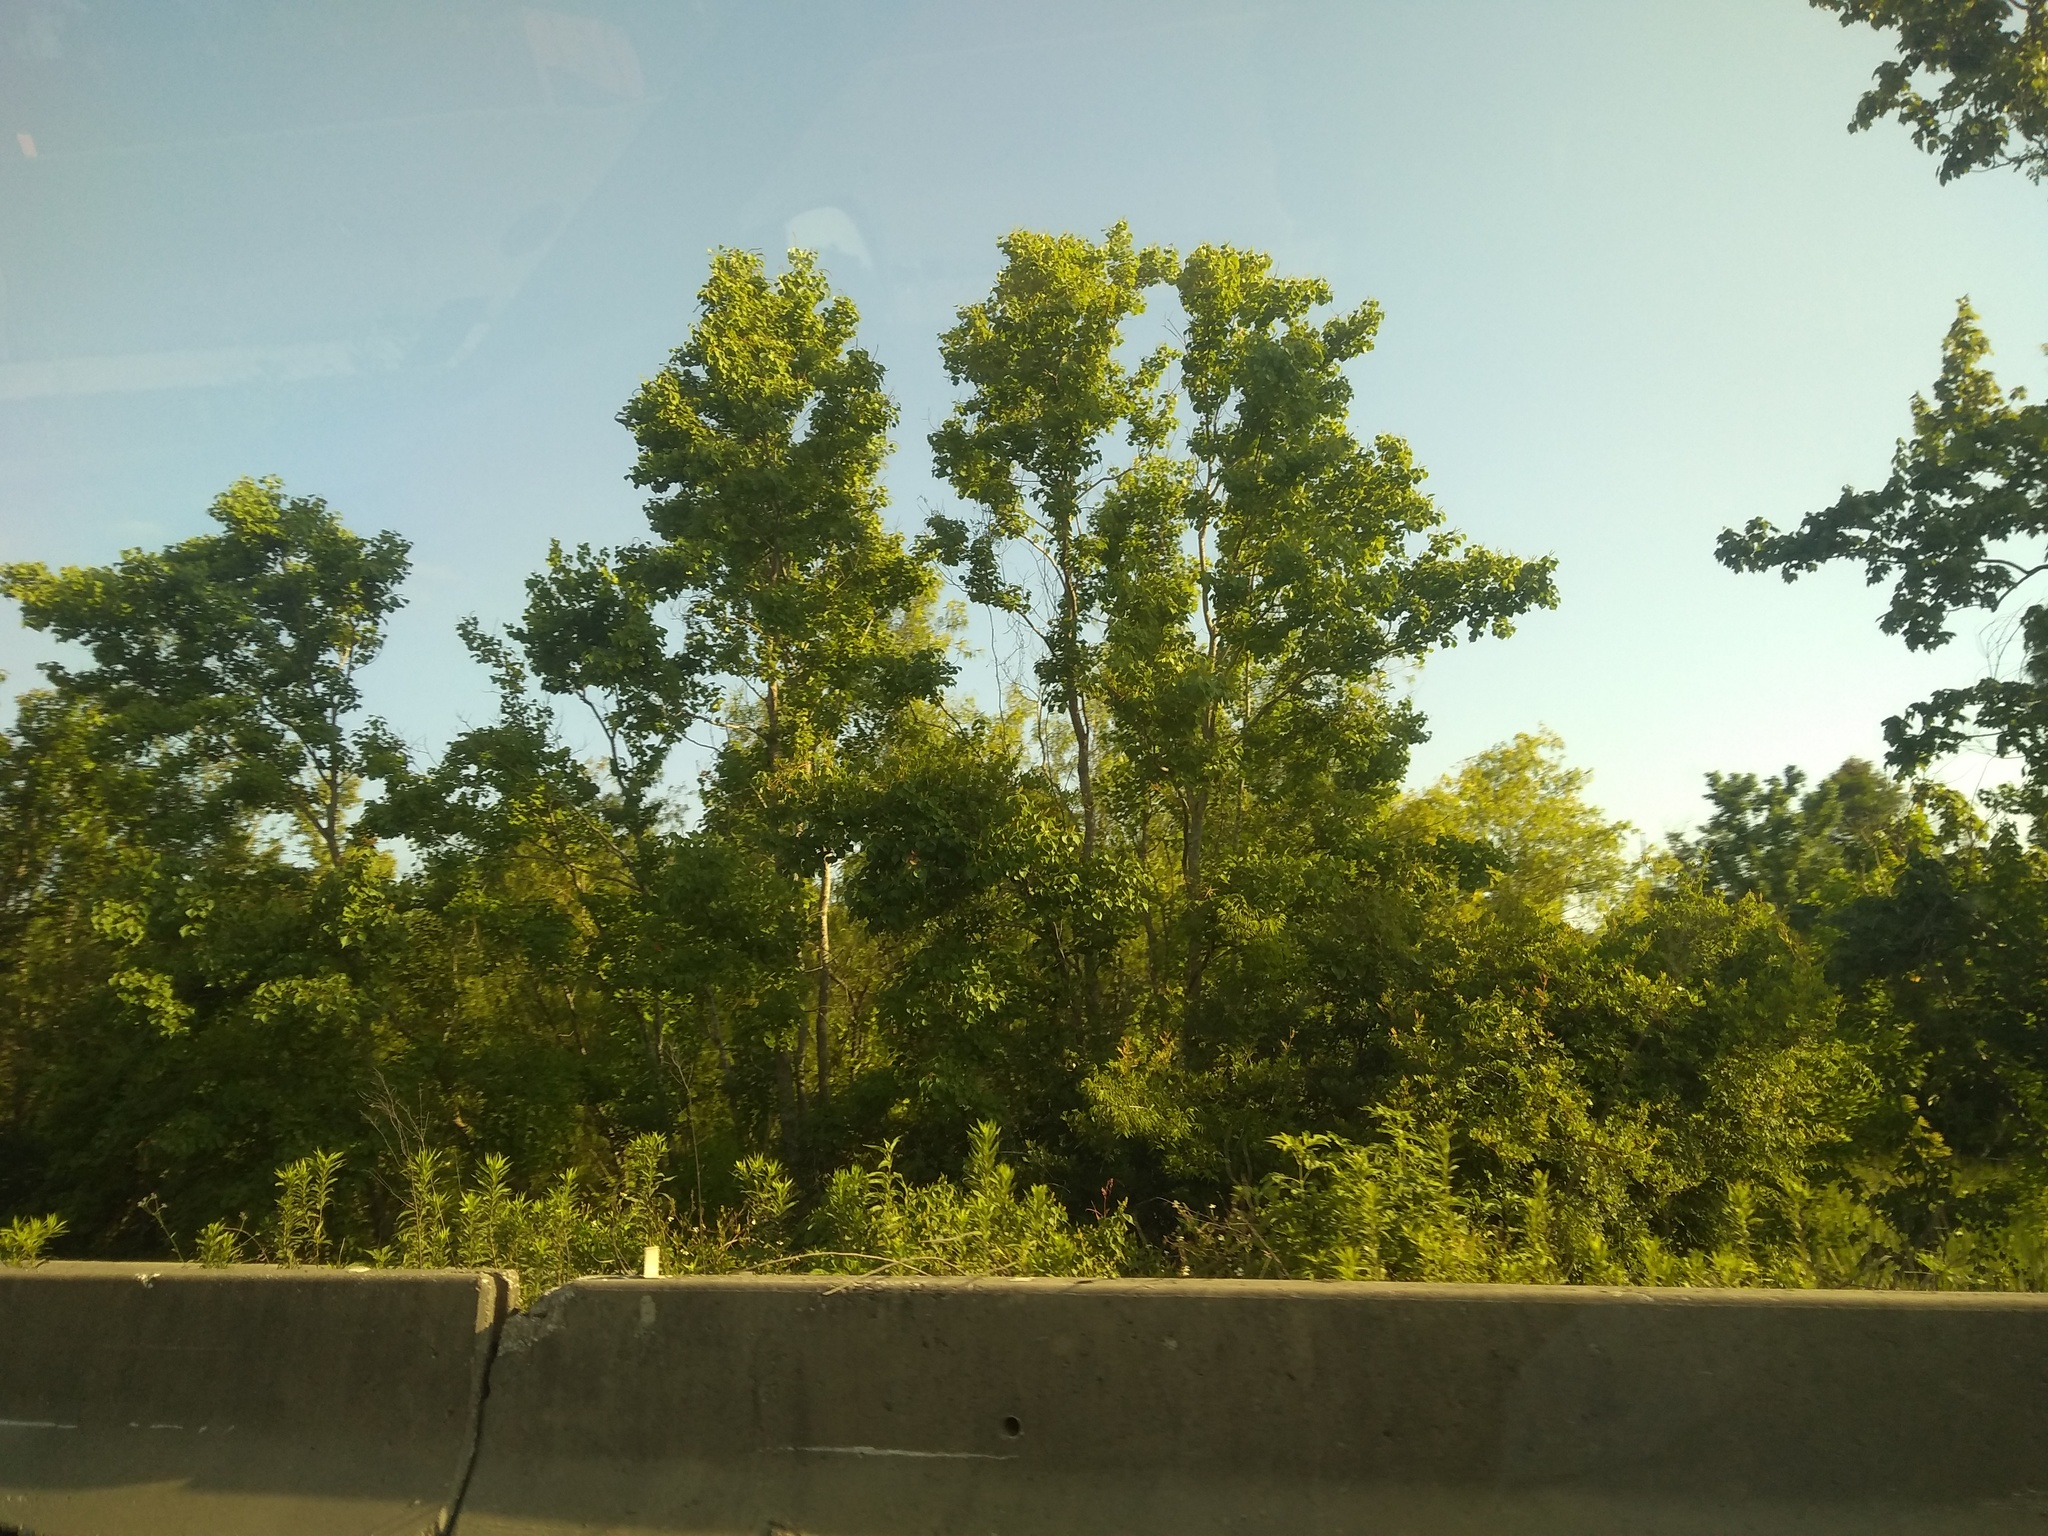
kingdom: Plantae
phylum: Tracheophyta
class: Magnoliopsida
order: Malpighiales
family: Euphorbiaceae
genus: Triadica
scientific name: Triadica sebifera
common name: Chinese tallow
